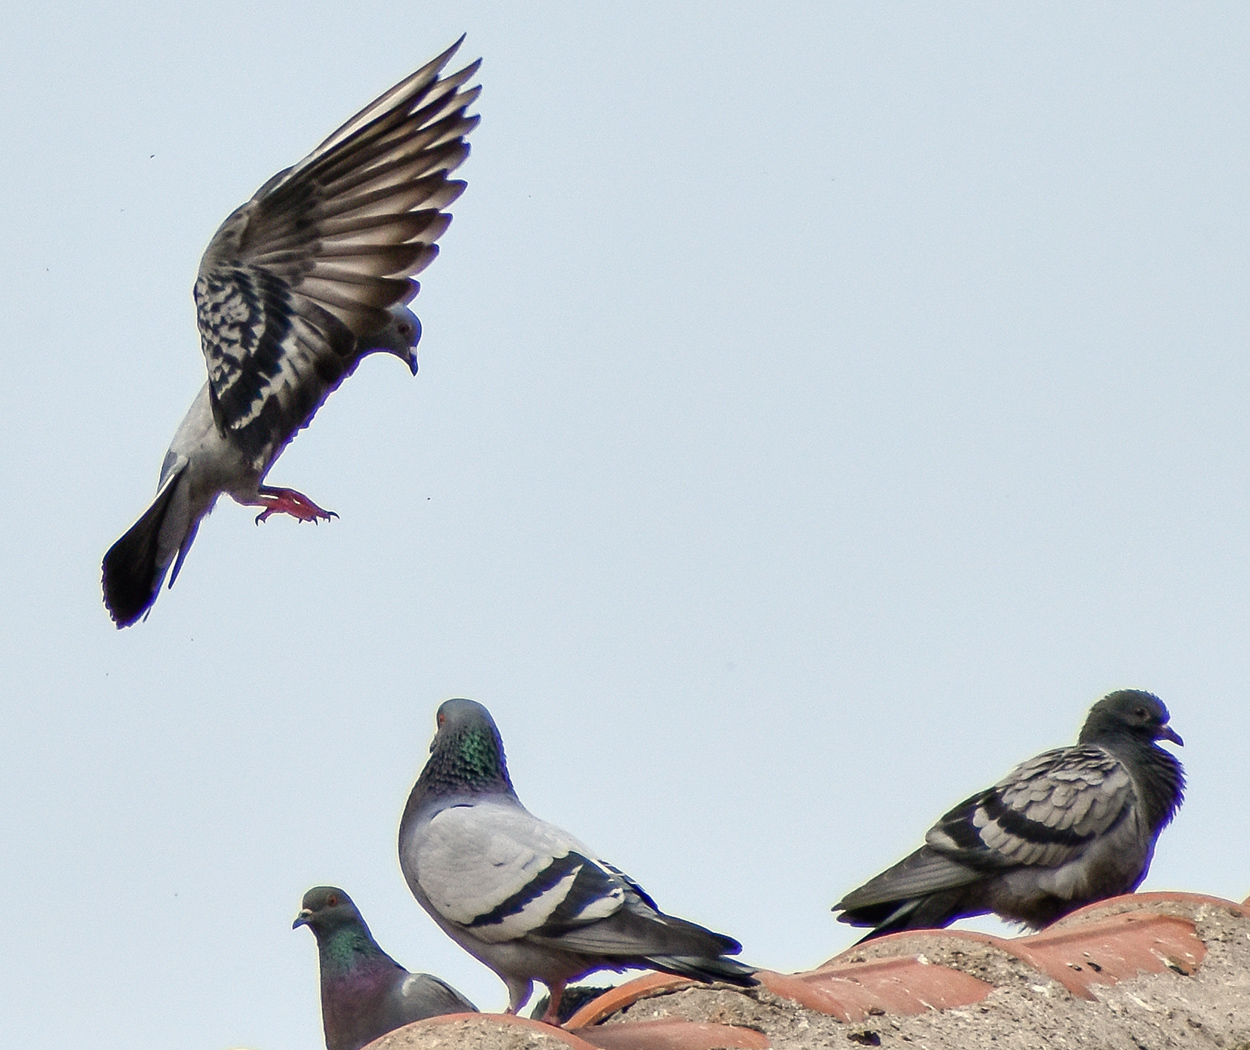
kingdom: Animalia
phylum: Chordata
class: Aves
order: Columbiformes
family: Columbidae
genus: Columba
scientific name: Columba livia
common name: Rock pigeon
